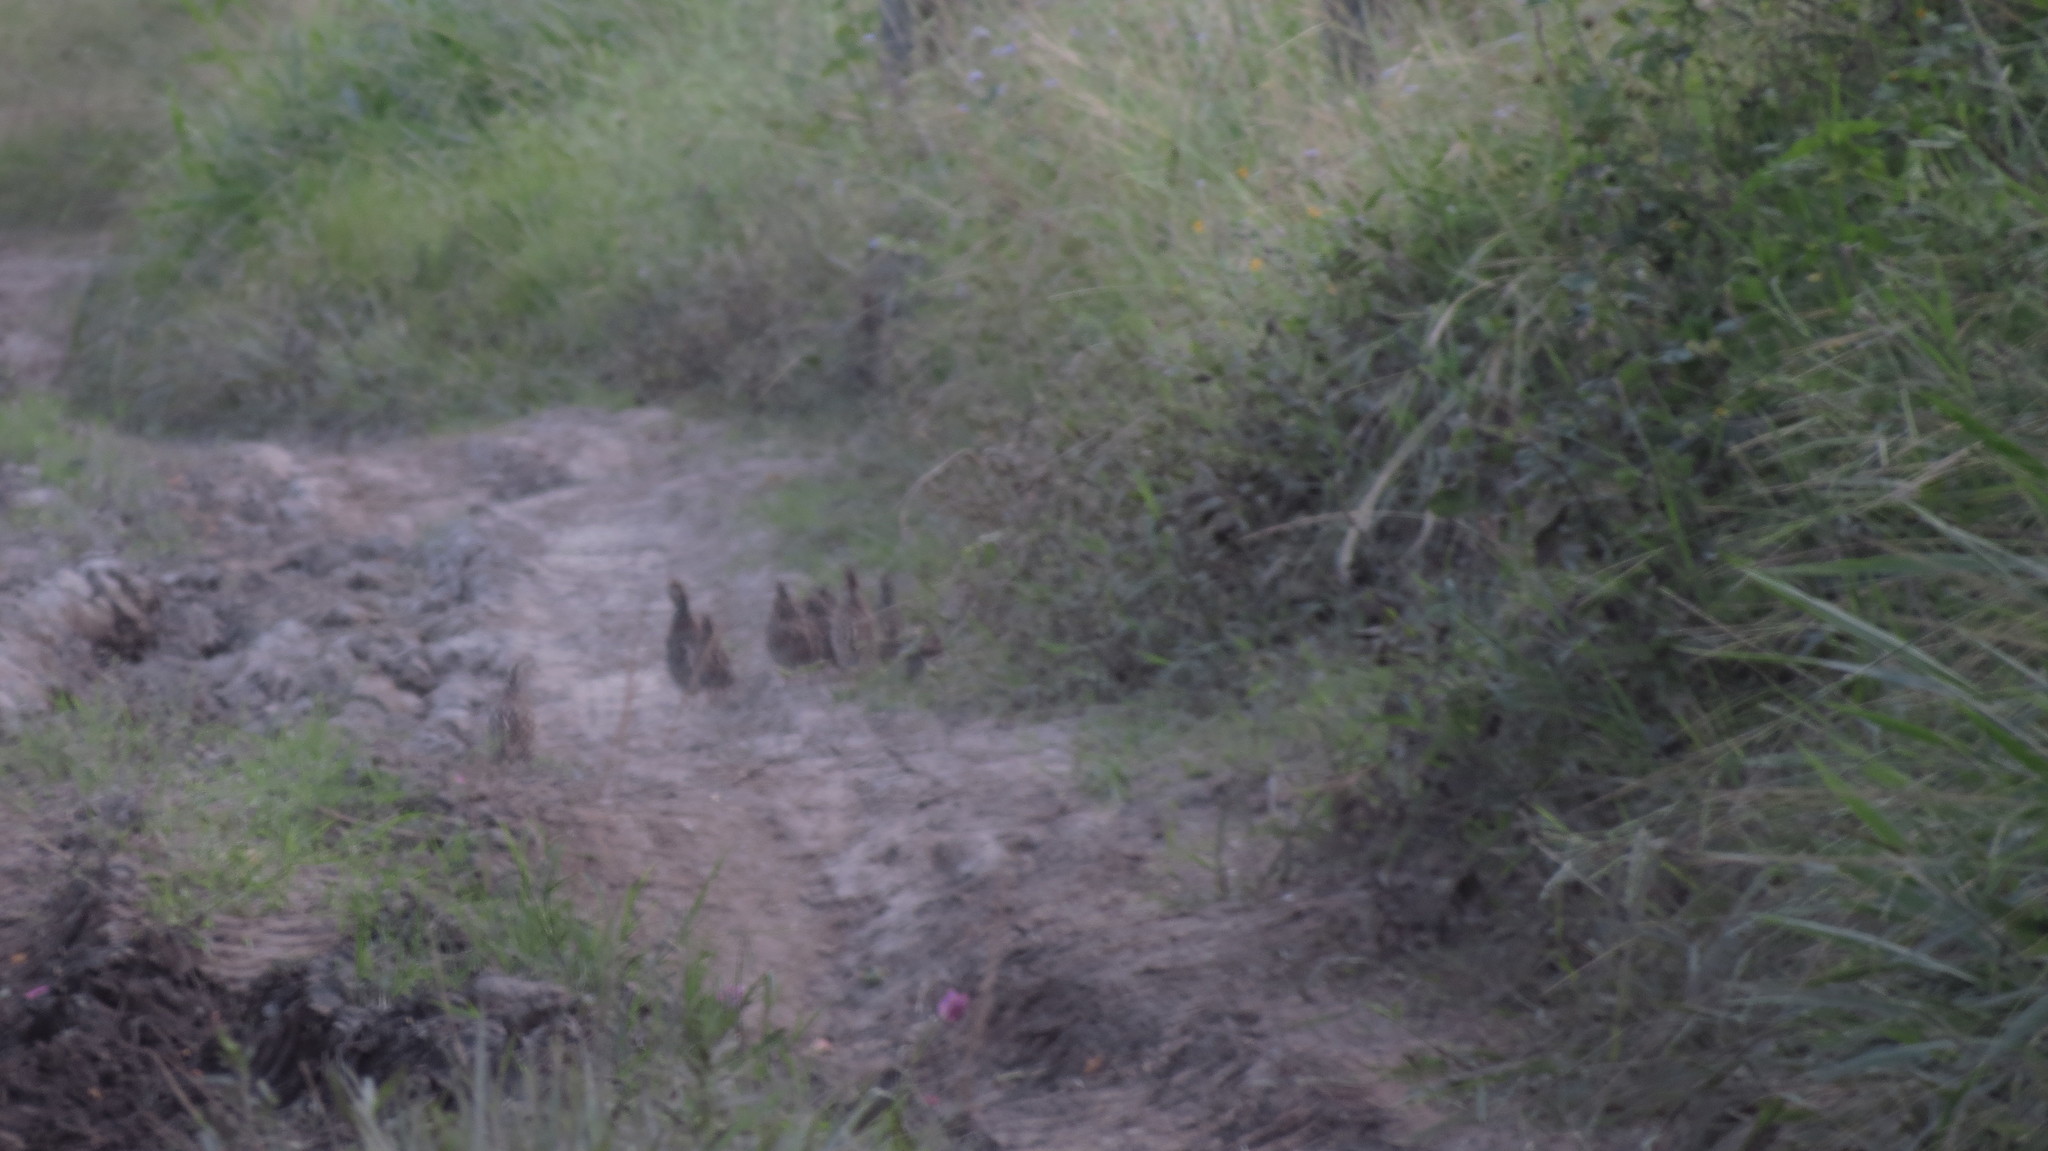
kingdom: Animalia
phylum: Chordata
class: Aves
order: Galliformes
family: Odontophoridae
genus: Colinus
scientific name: Colinus cristatus
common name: Crested bobwhite
